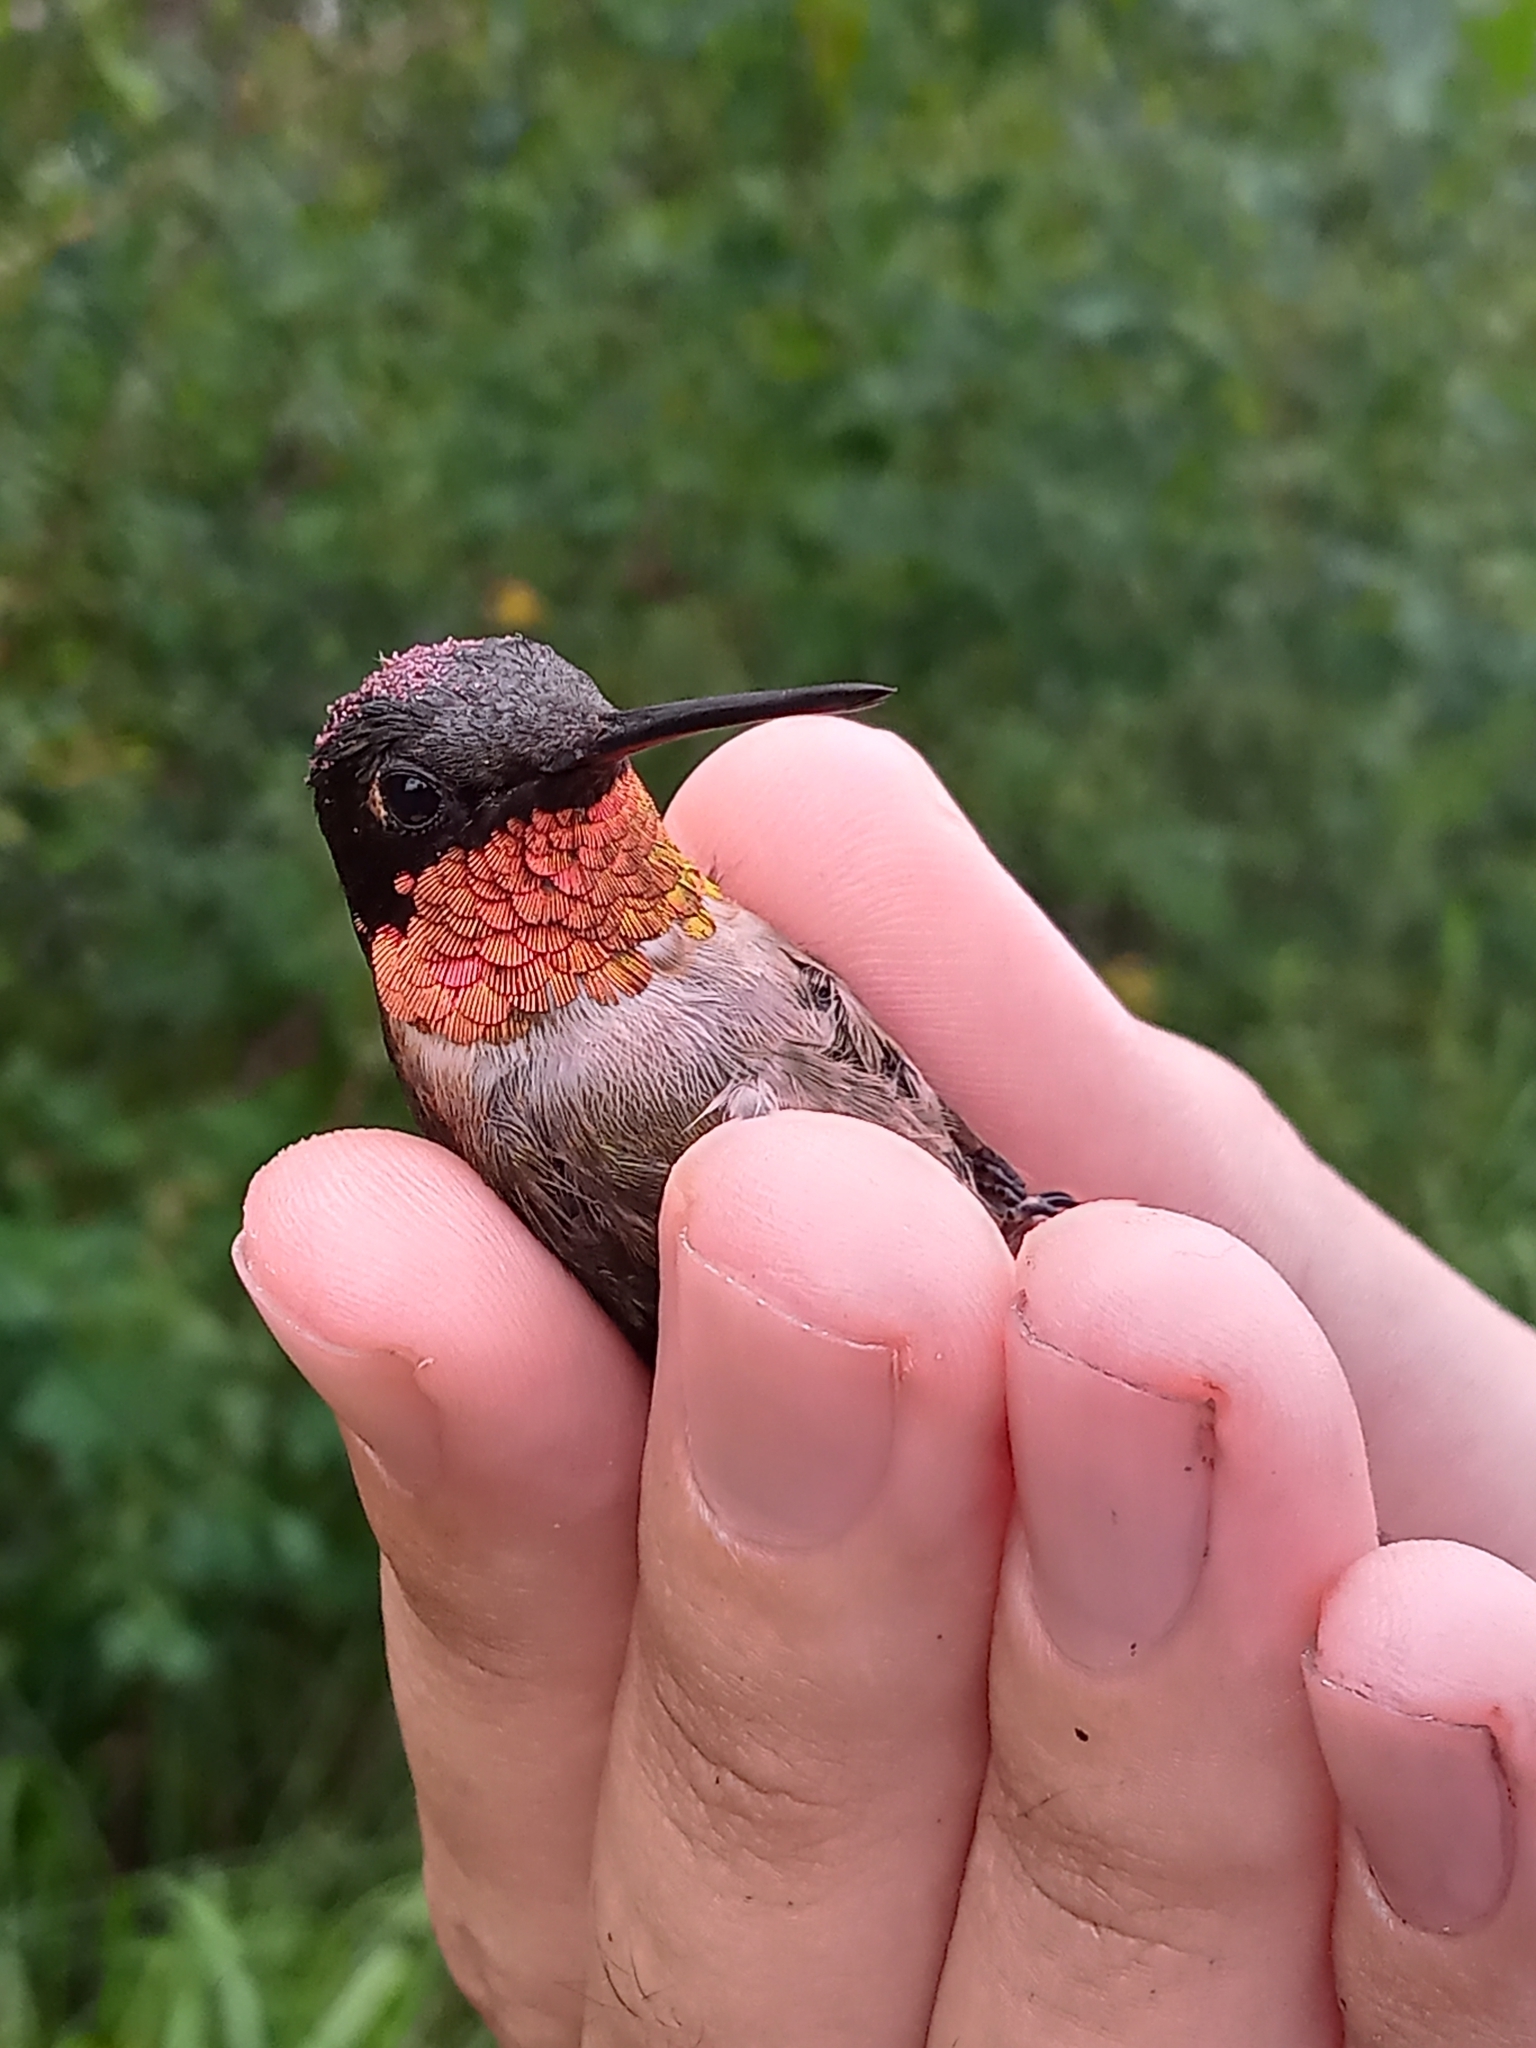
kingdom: Animalia
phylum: Chordata
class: Aves
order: Apodiformes
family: Trochilidae
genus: Archilochus
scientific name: Archilochus colubris
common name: Ruby-throated hummingbird
